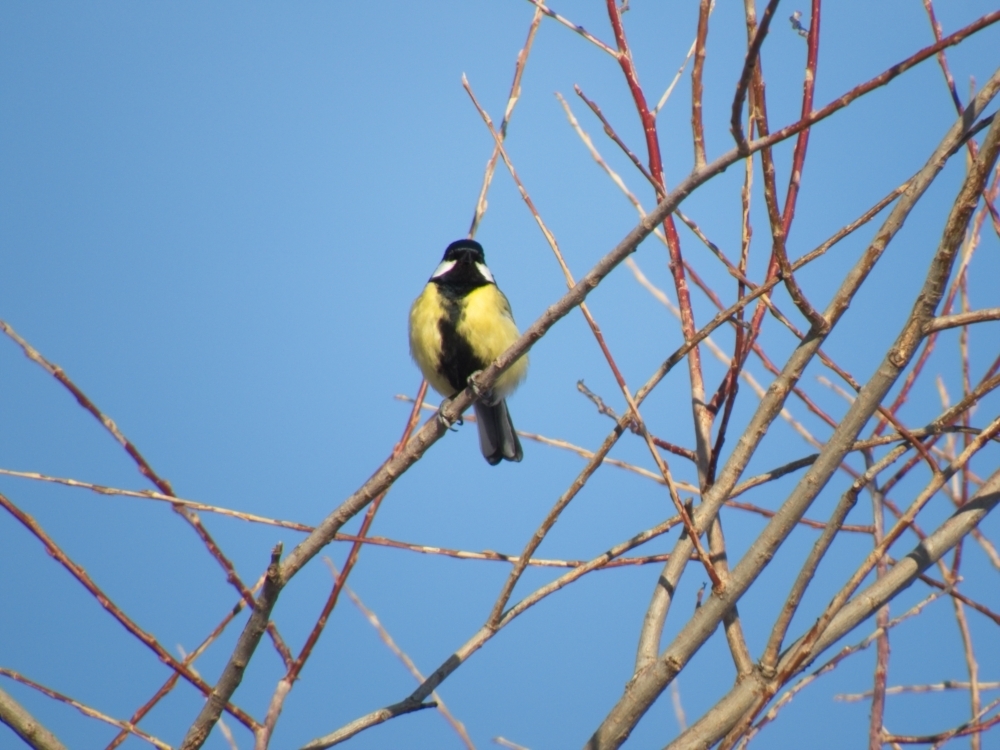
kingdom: Animalia
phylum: Chordata
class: Aves
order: Passeriformes
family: Paridae
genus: Parus
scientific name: Parus major
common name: Great tit
